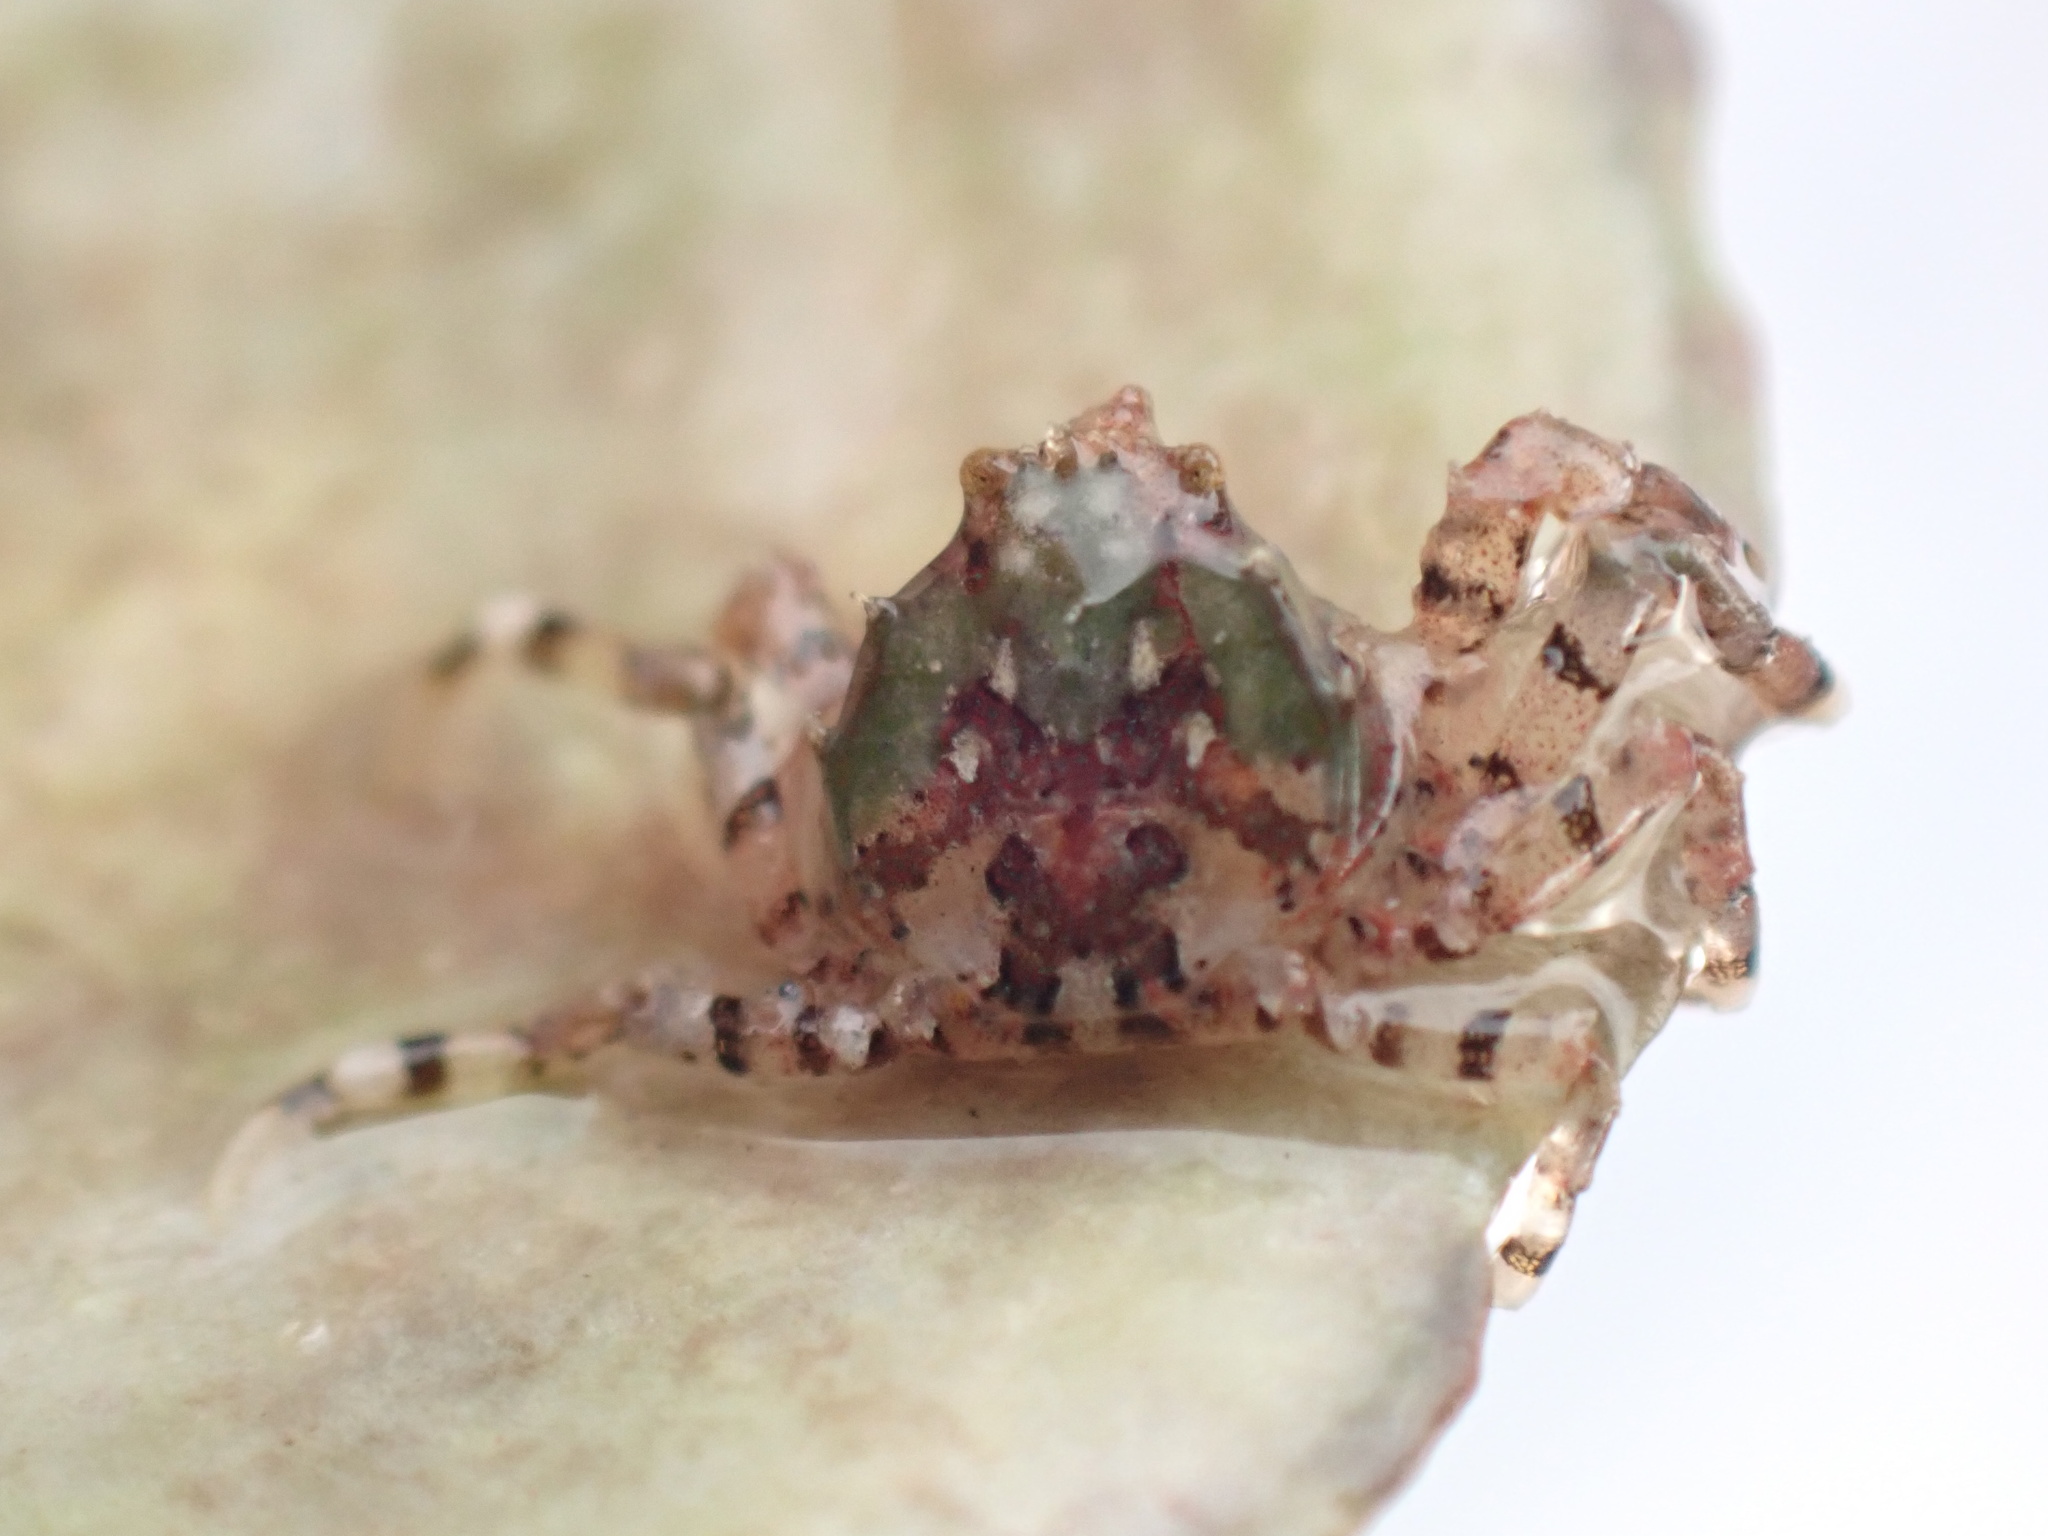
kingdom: Animalia
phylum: Arthropoda
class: Malacostraca
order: Decapoda
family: Hymenosomatidae
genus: Halicarcinus
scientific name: Halicarcinus cookii
